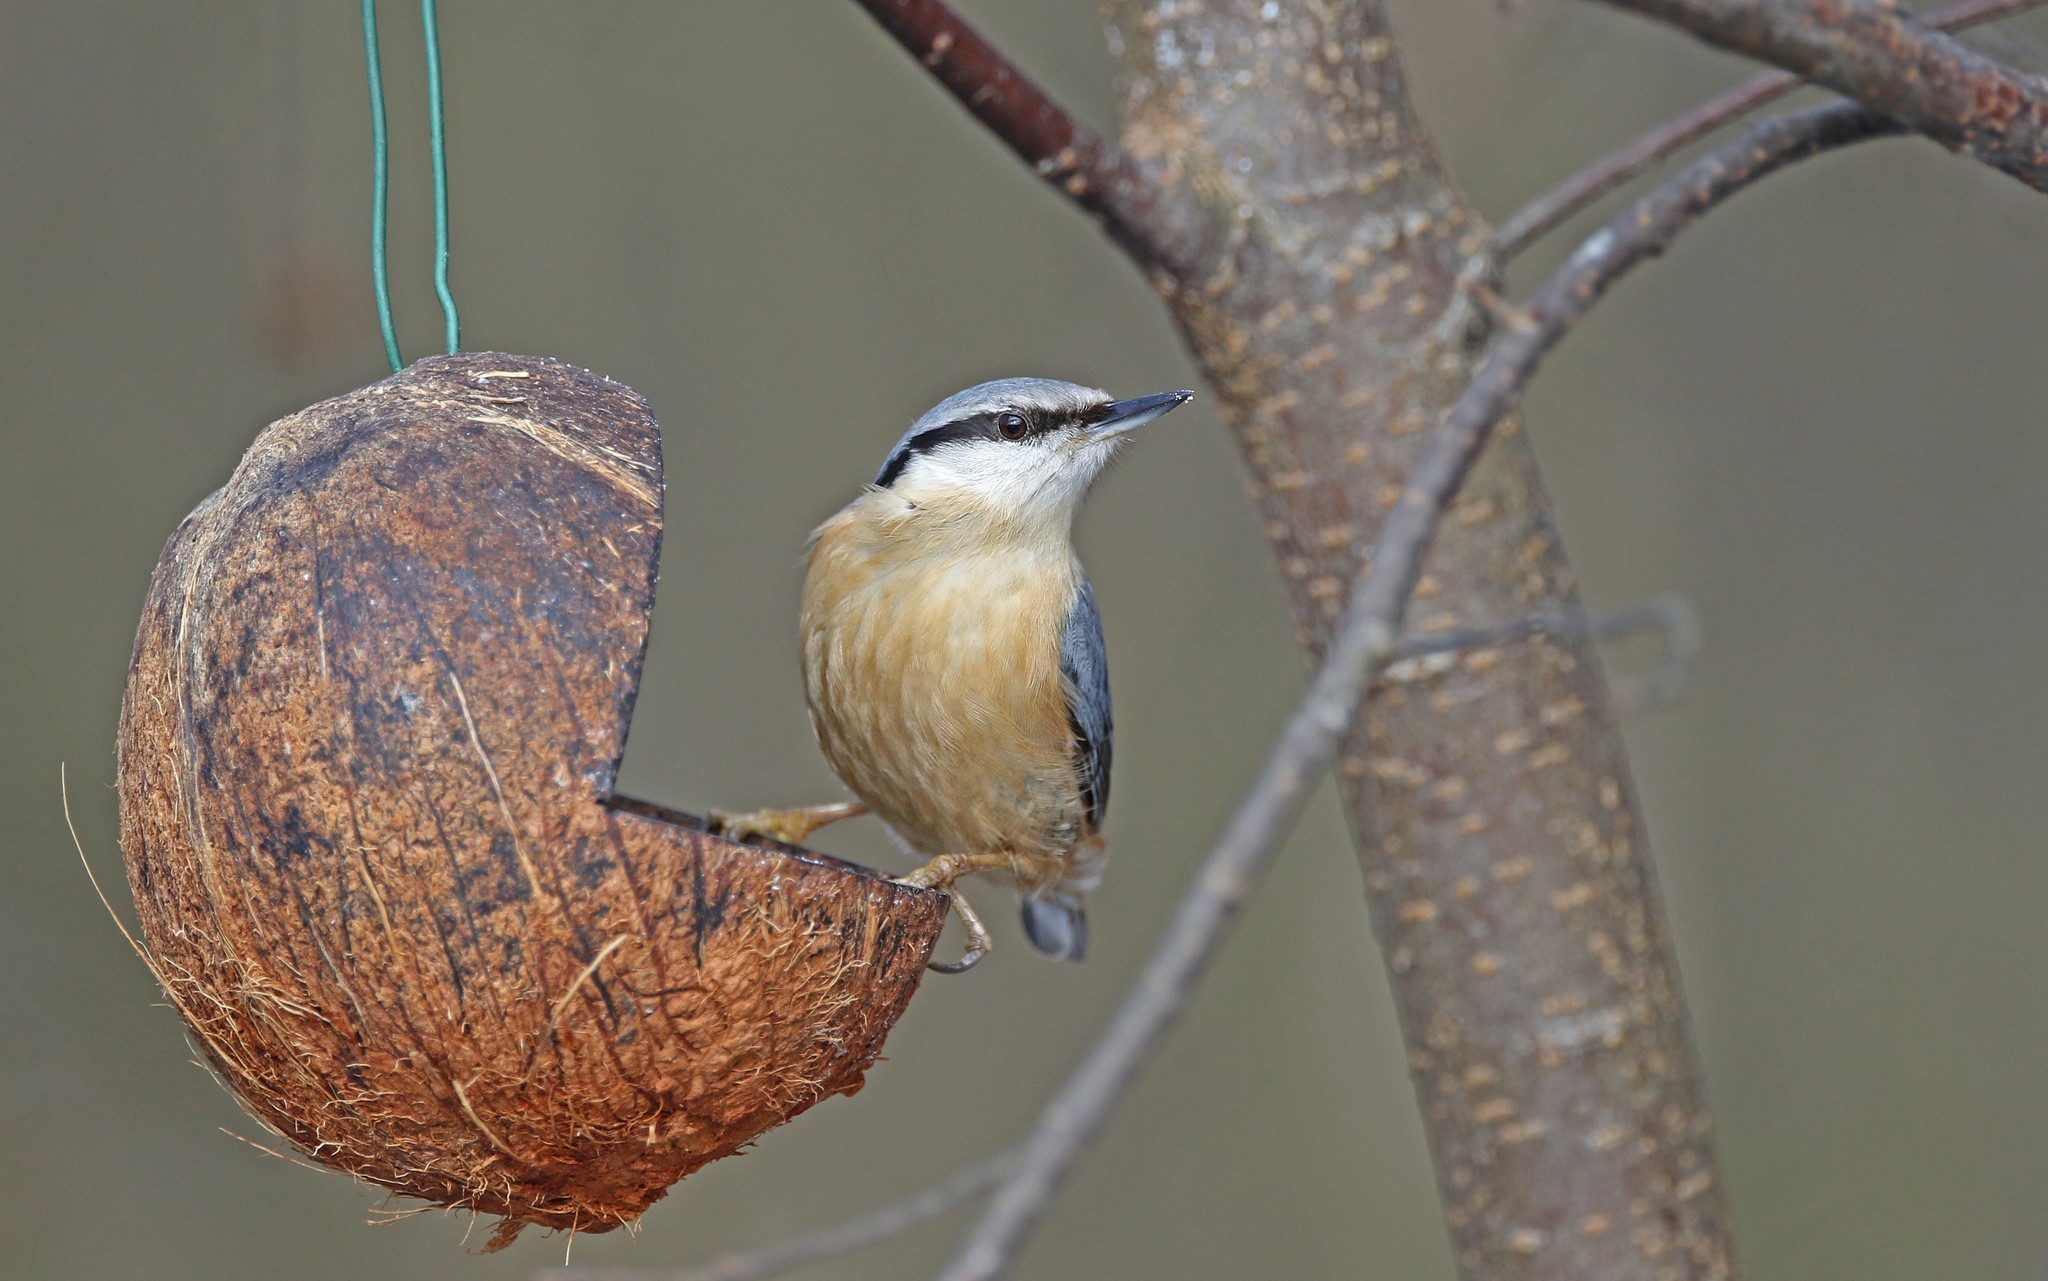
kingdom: Animalia
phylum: Chordata
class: Aves
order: Passeriformes
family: Sittidae
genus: Sitta
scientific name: Sitta europaea
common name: Eurasian nuthatch
